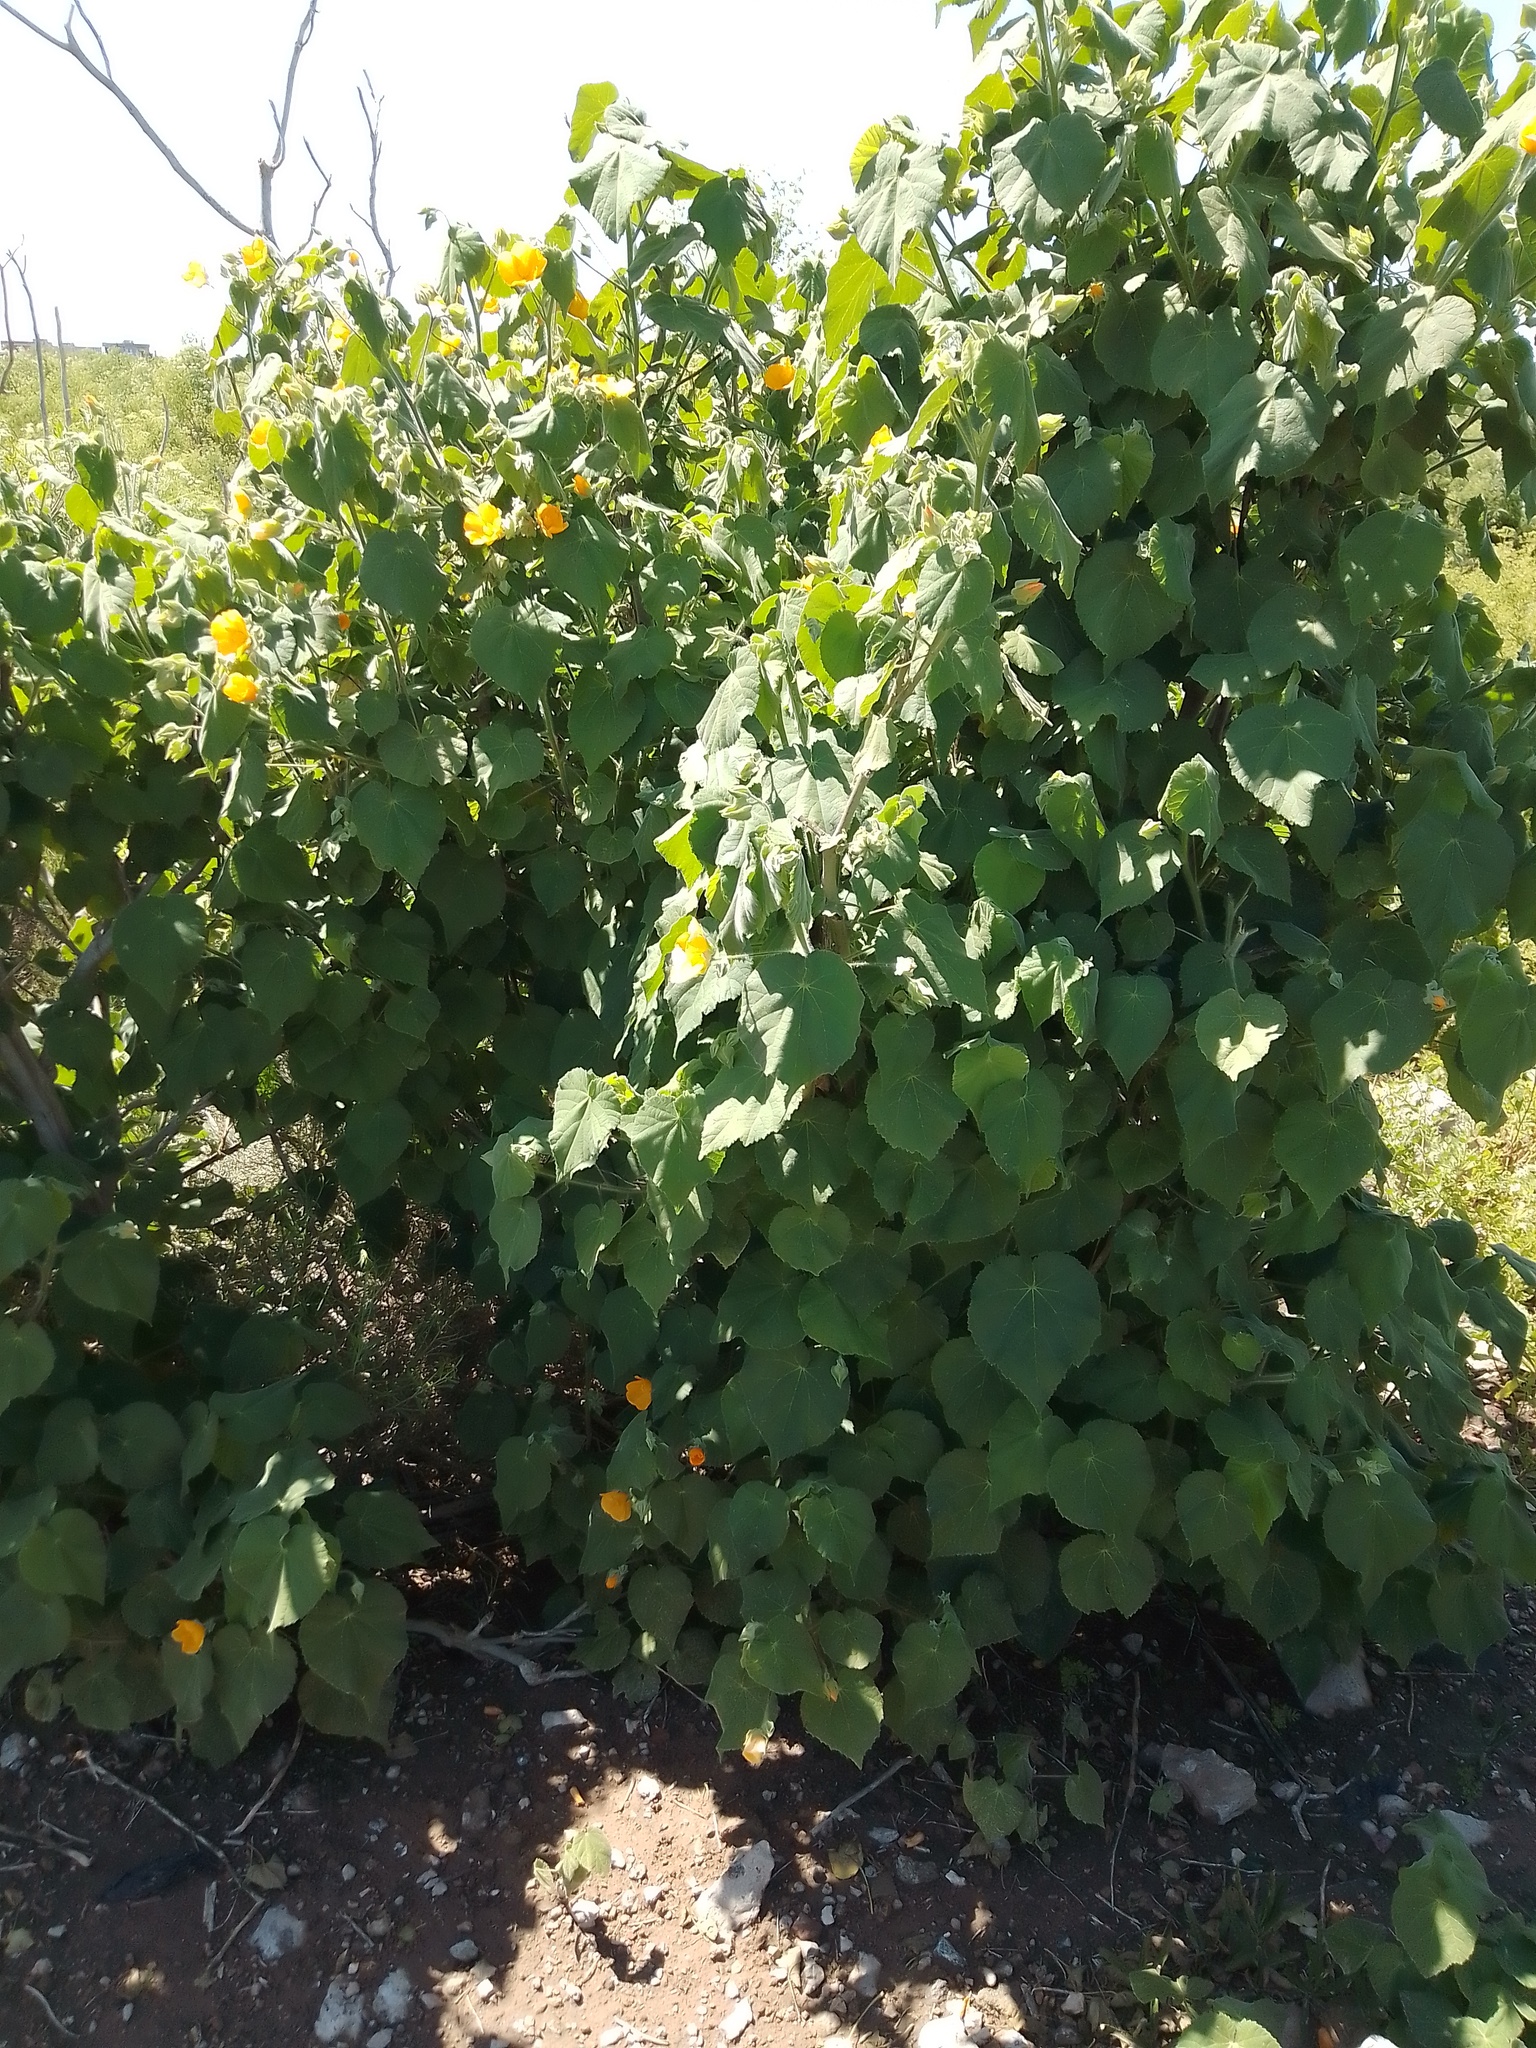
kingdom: Plantae
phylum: Tracheophyta
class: Magnoliopsida
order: Malvales
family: Malvaceae
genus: Abutilon
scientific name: Abutilon grandifolium
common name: Hairy abutilon
